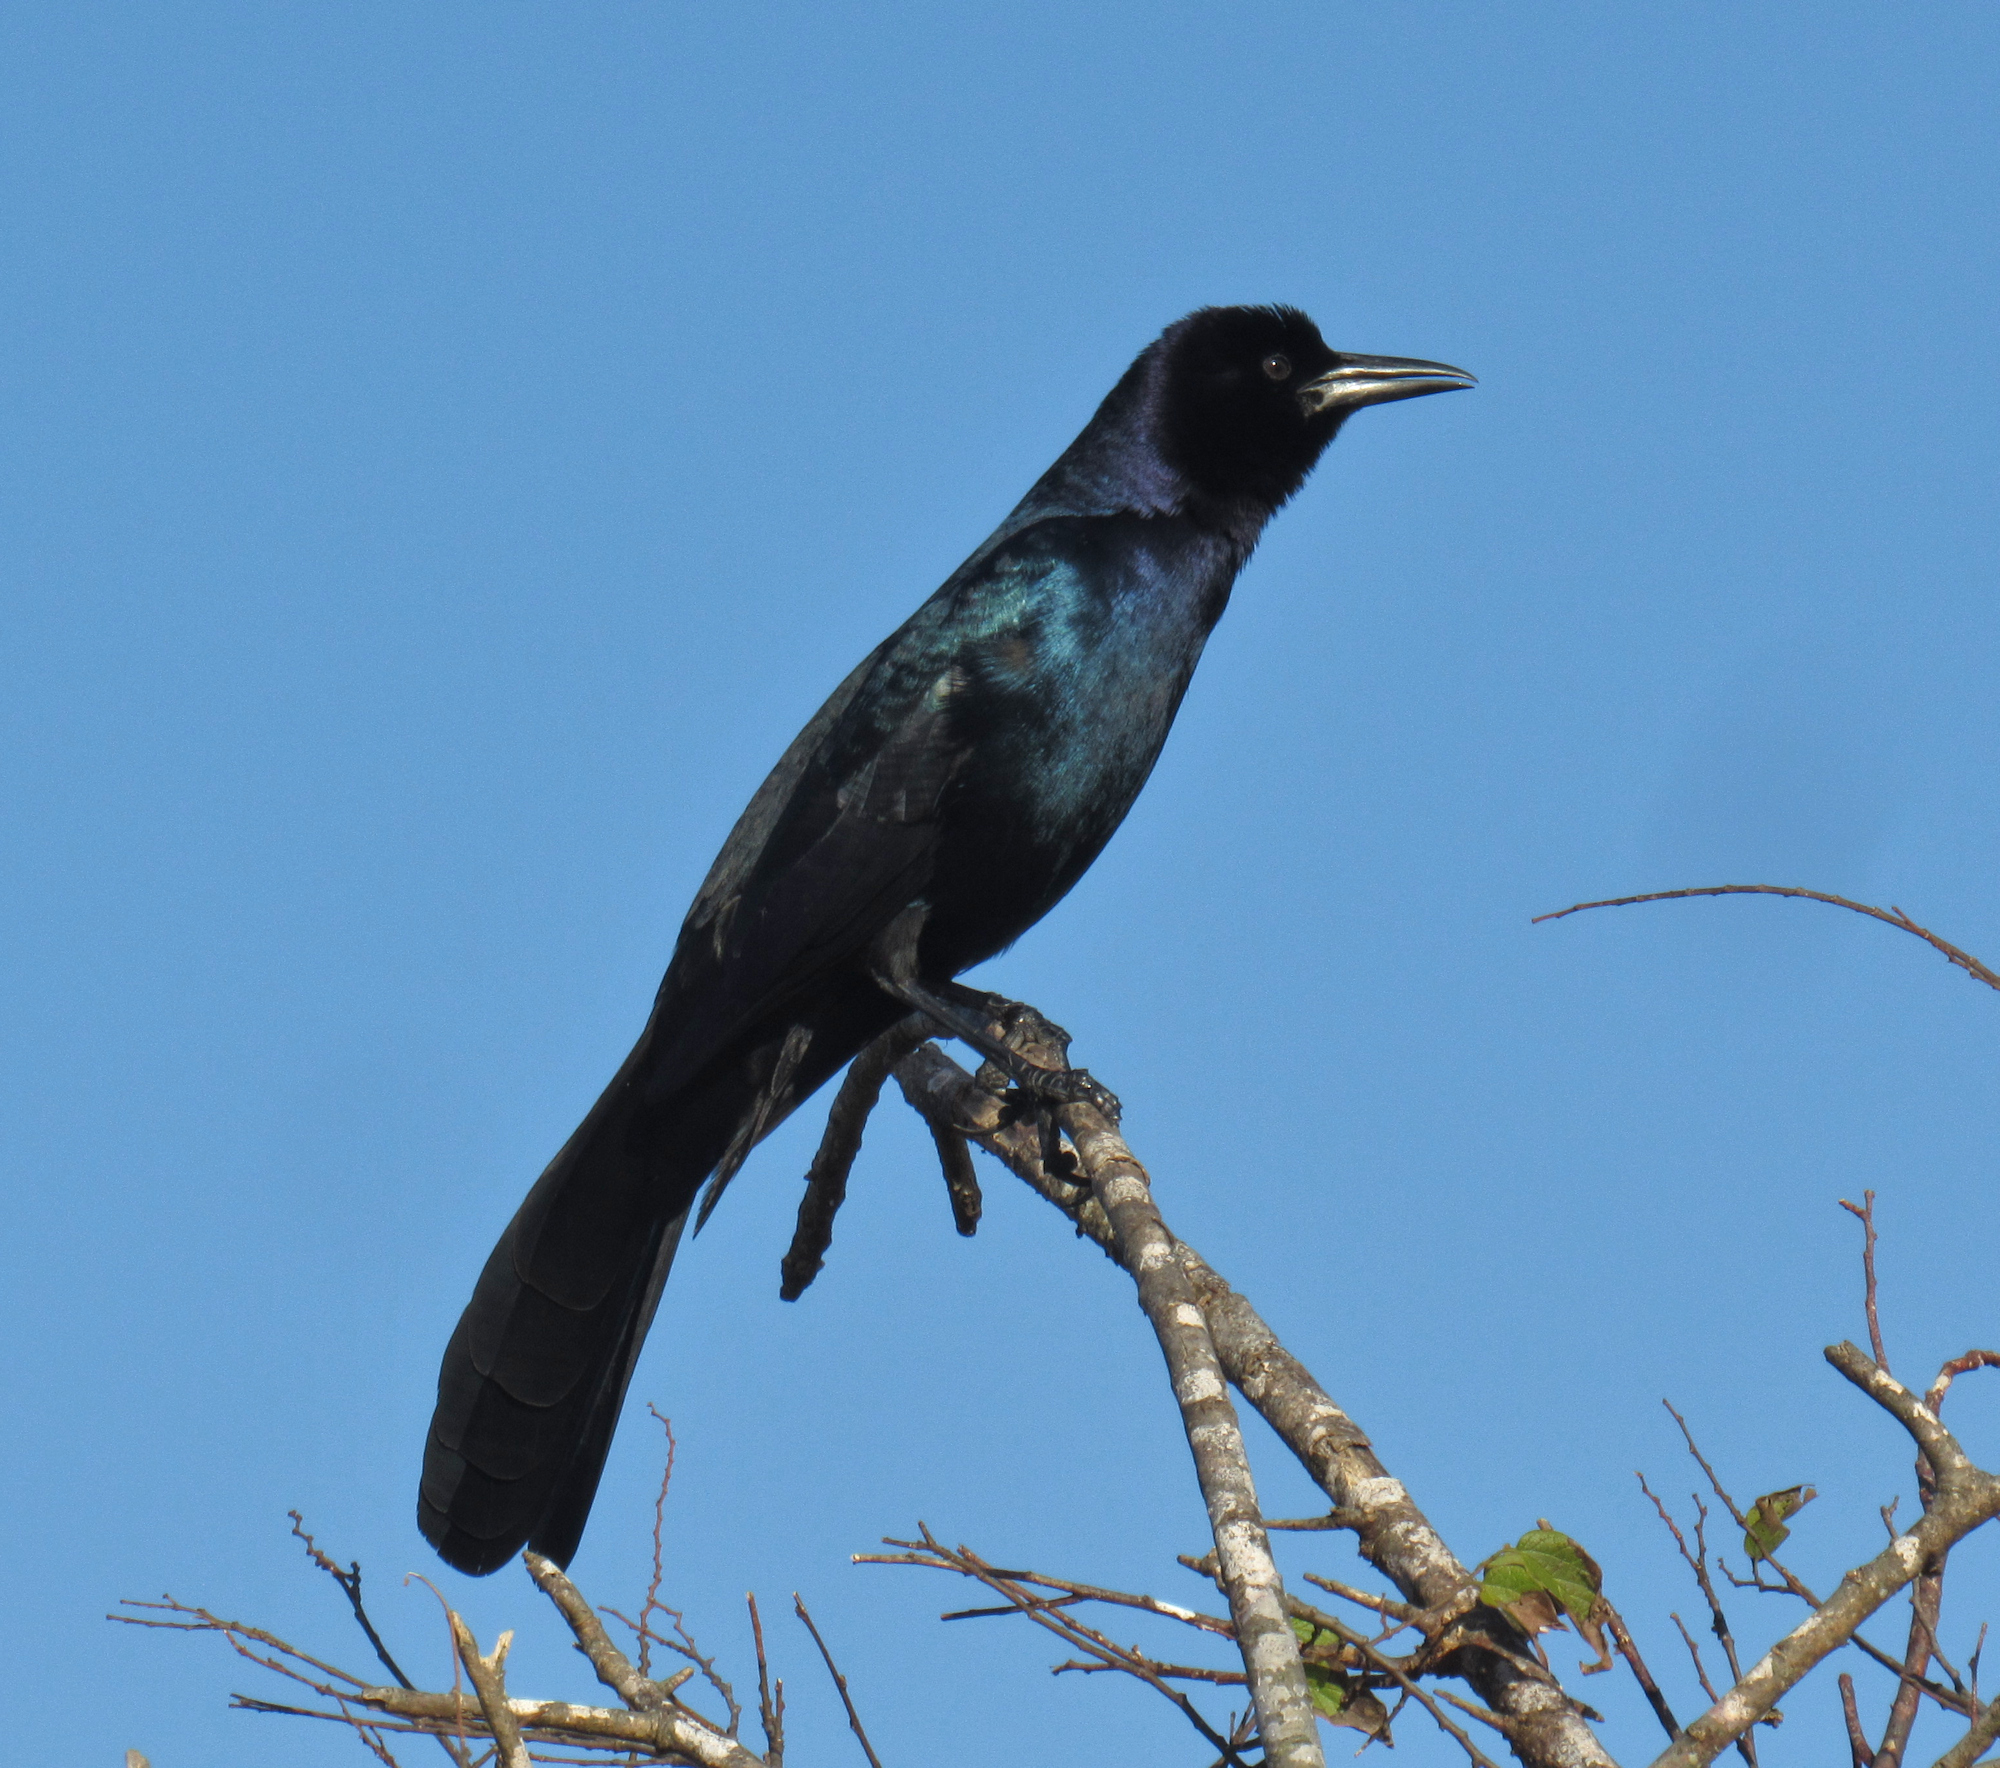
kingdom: Animalia
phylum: Chordata
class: Aves
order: Passeriformes
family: Icteridae
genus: Quiscalus
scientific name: Quiscalus major
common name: Boat-tailed grackle
